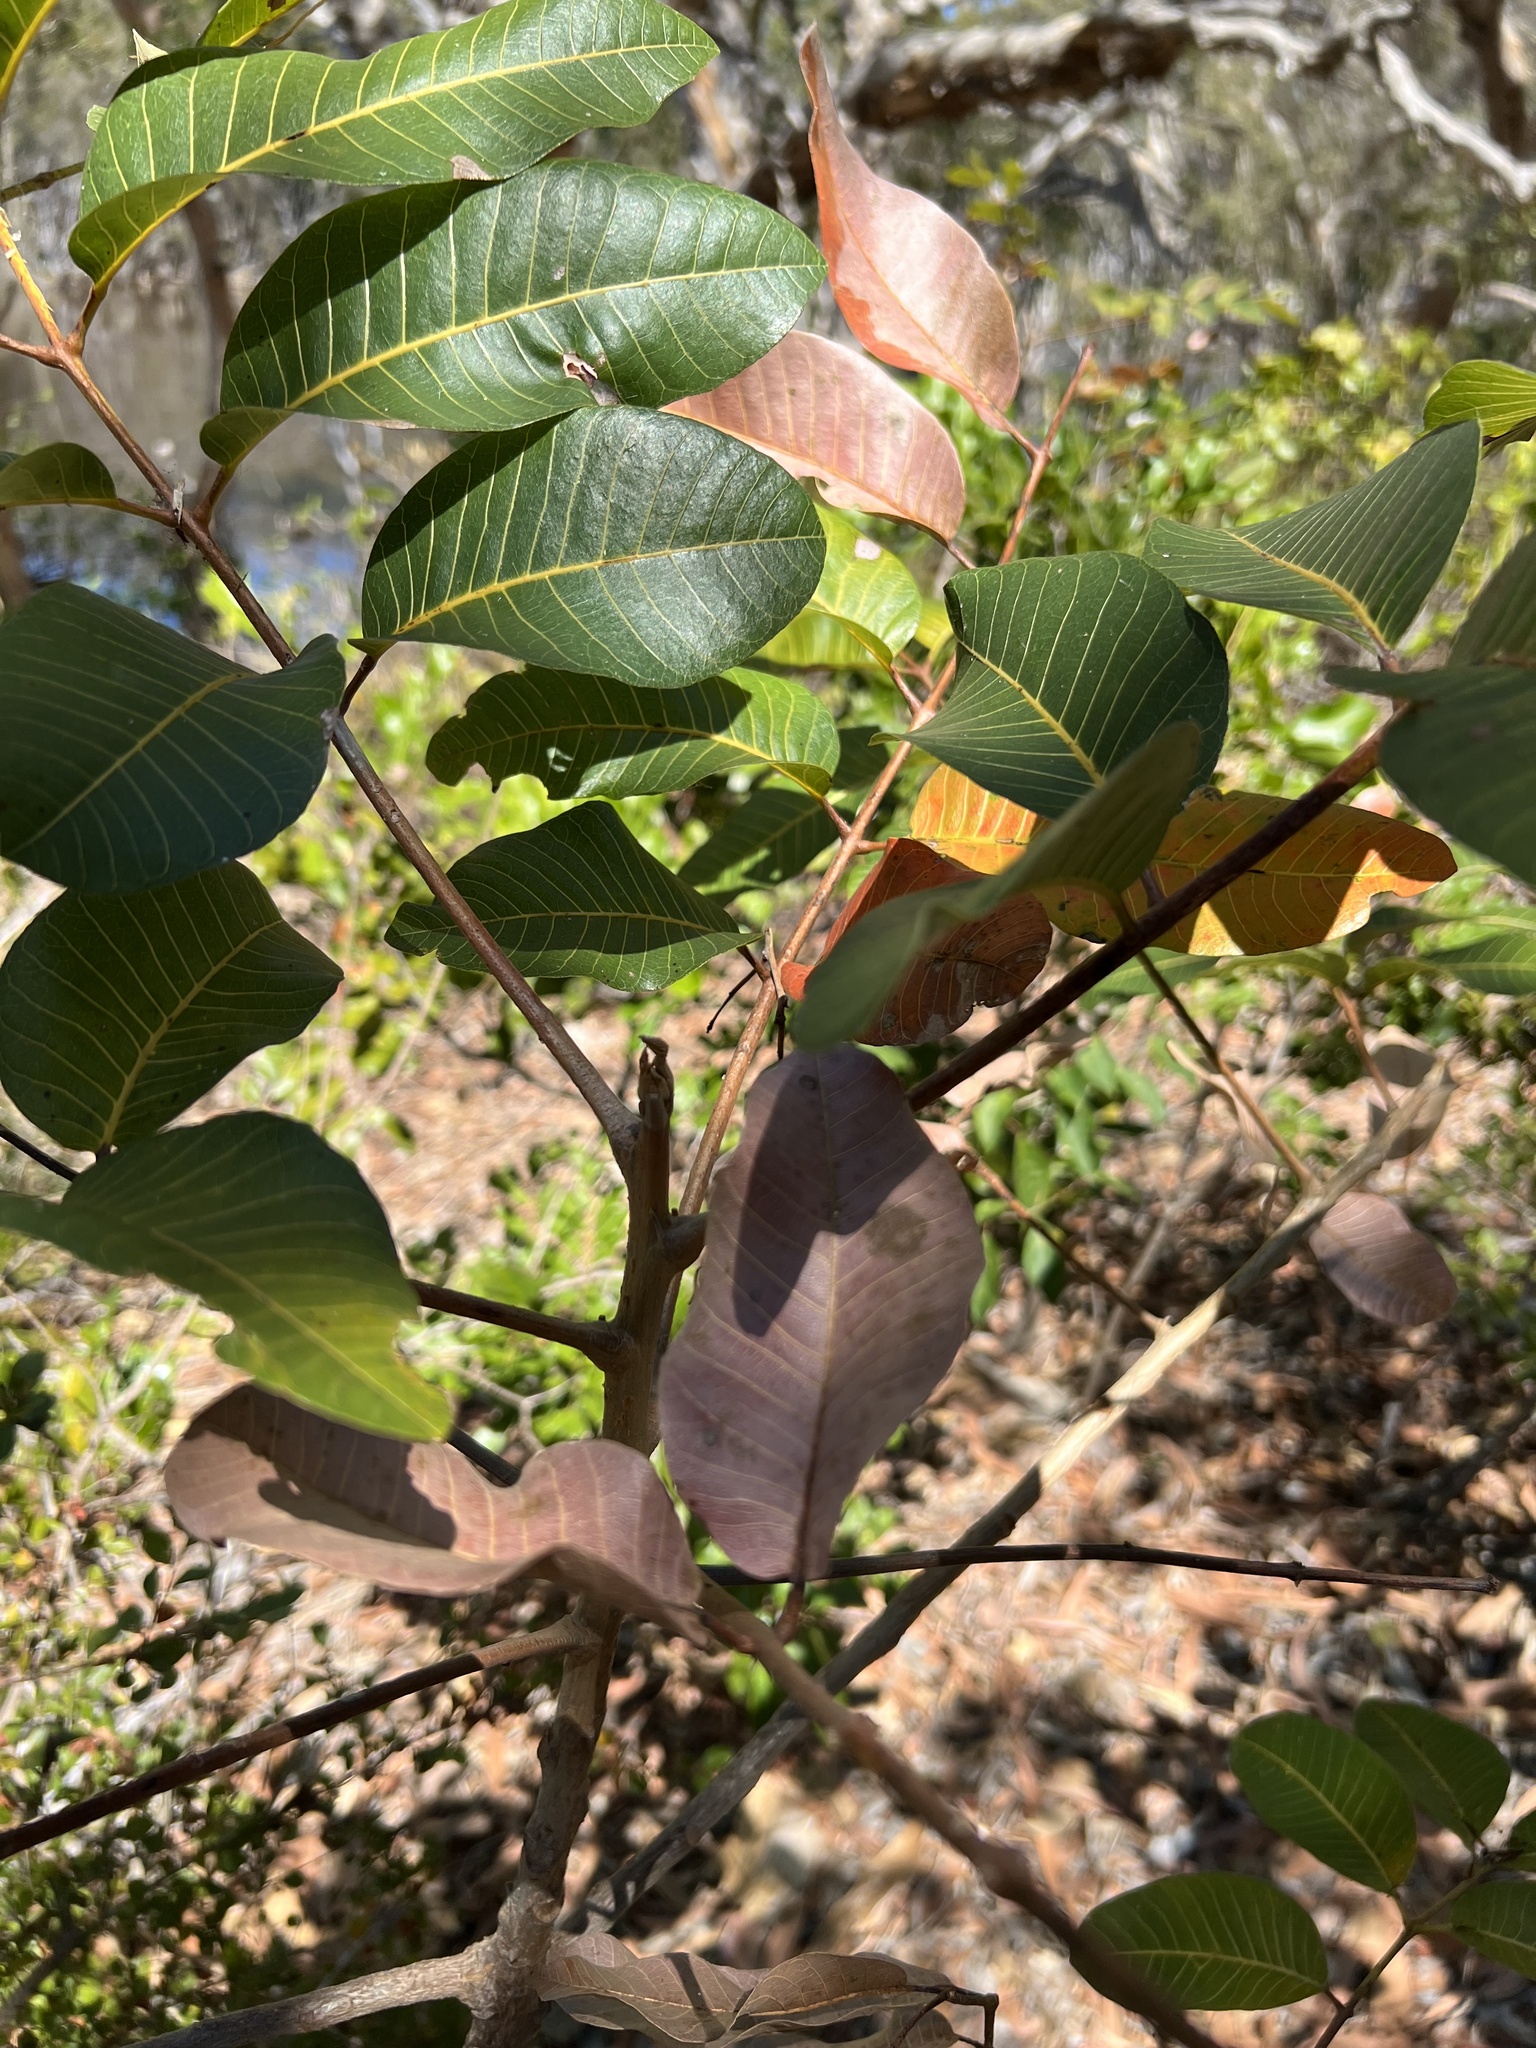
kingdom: Plantae
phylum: Tracheophyta
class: Magnoliopsida
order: Sapindales
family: Burseraceae
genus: Canarium
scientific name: Canarium australianum
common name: Island white-beech
